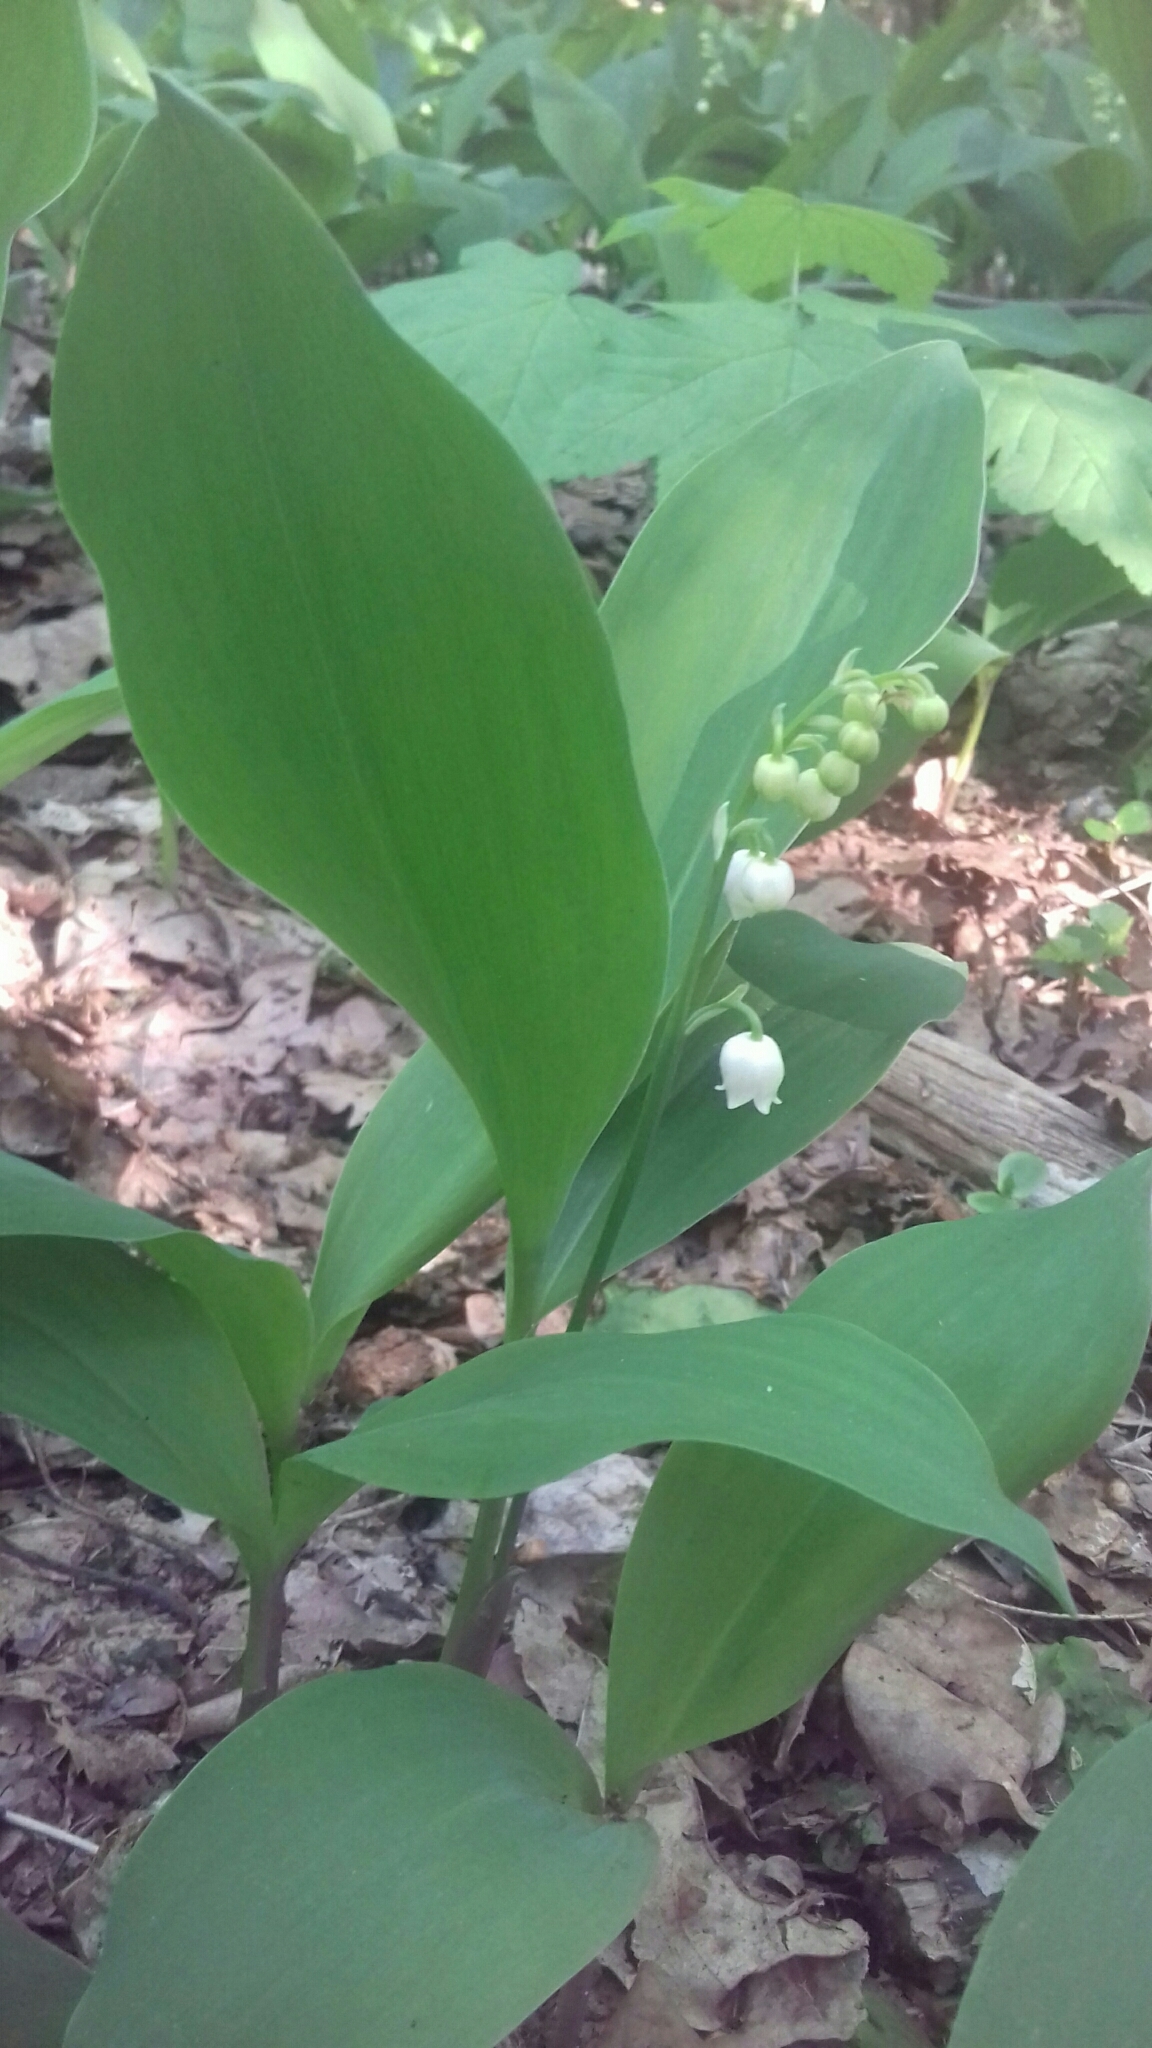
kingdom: Plantae
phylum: Tracheophyta
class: Liliopsida
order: Asparagales
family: Asparagaceae
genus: Convallaria
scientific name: Convallaria majalis
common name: Lily-of-the-valley
